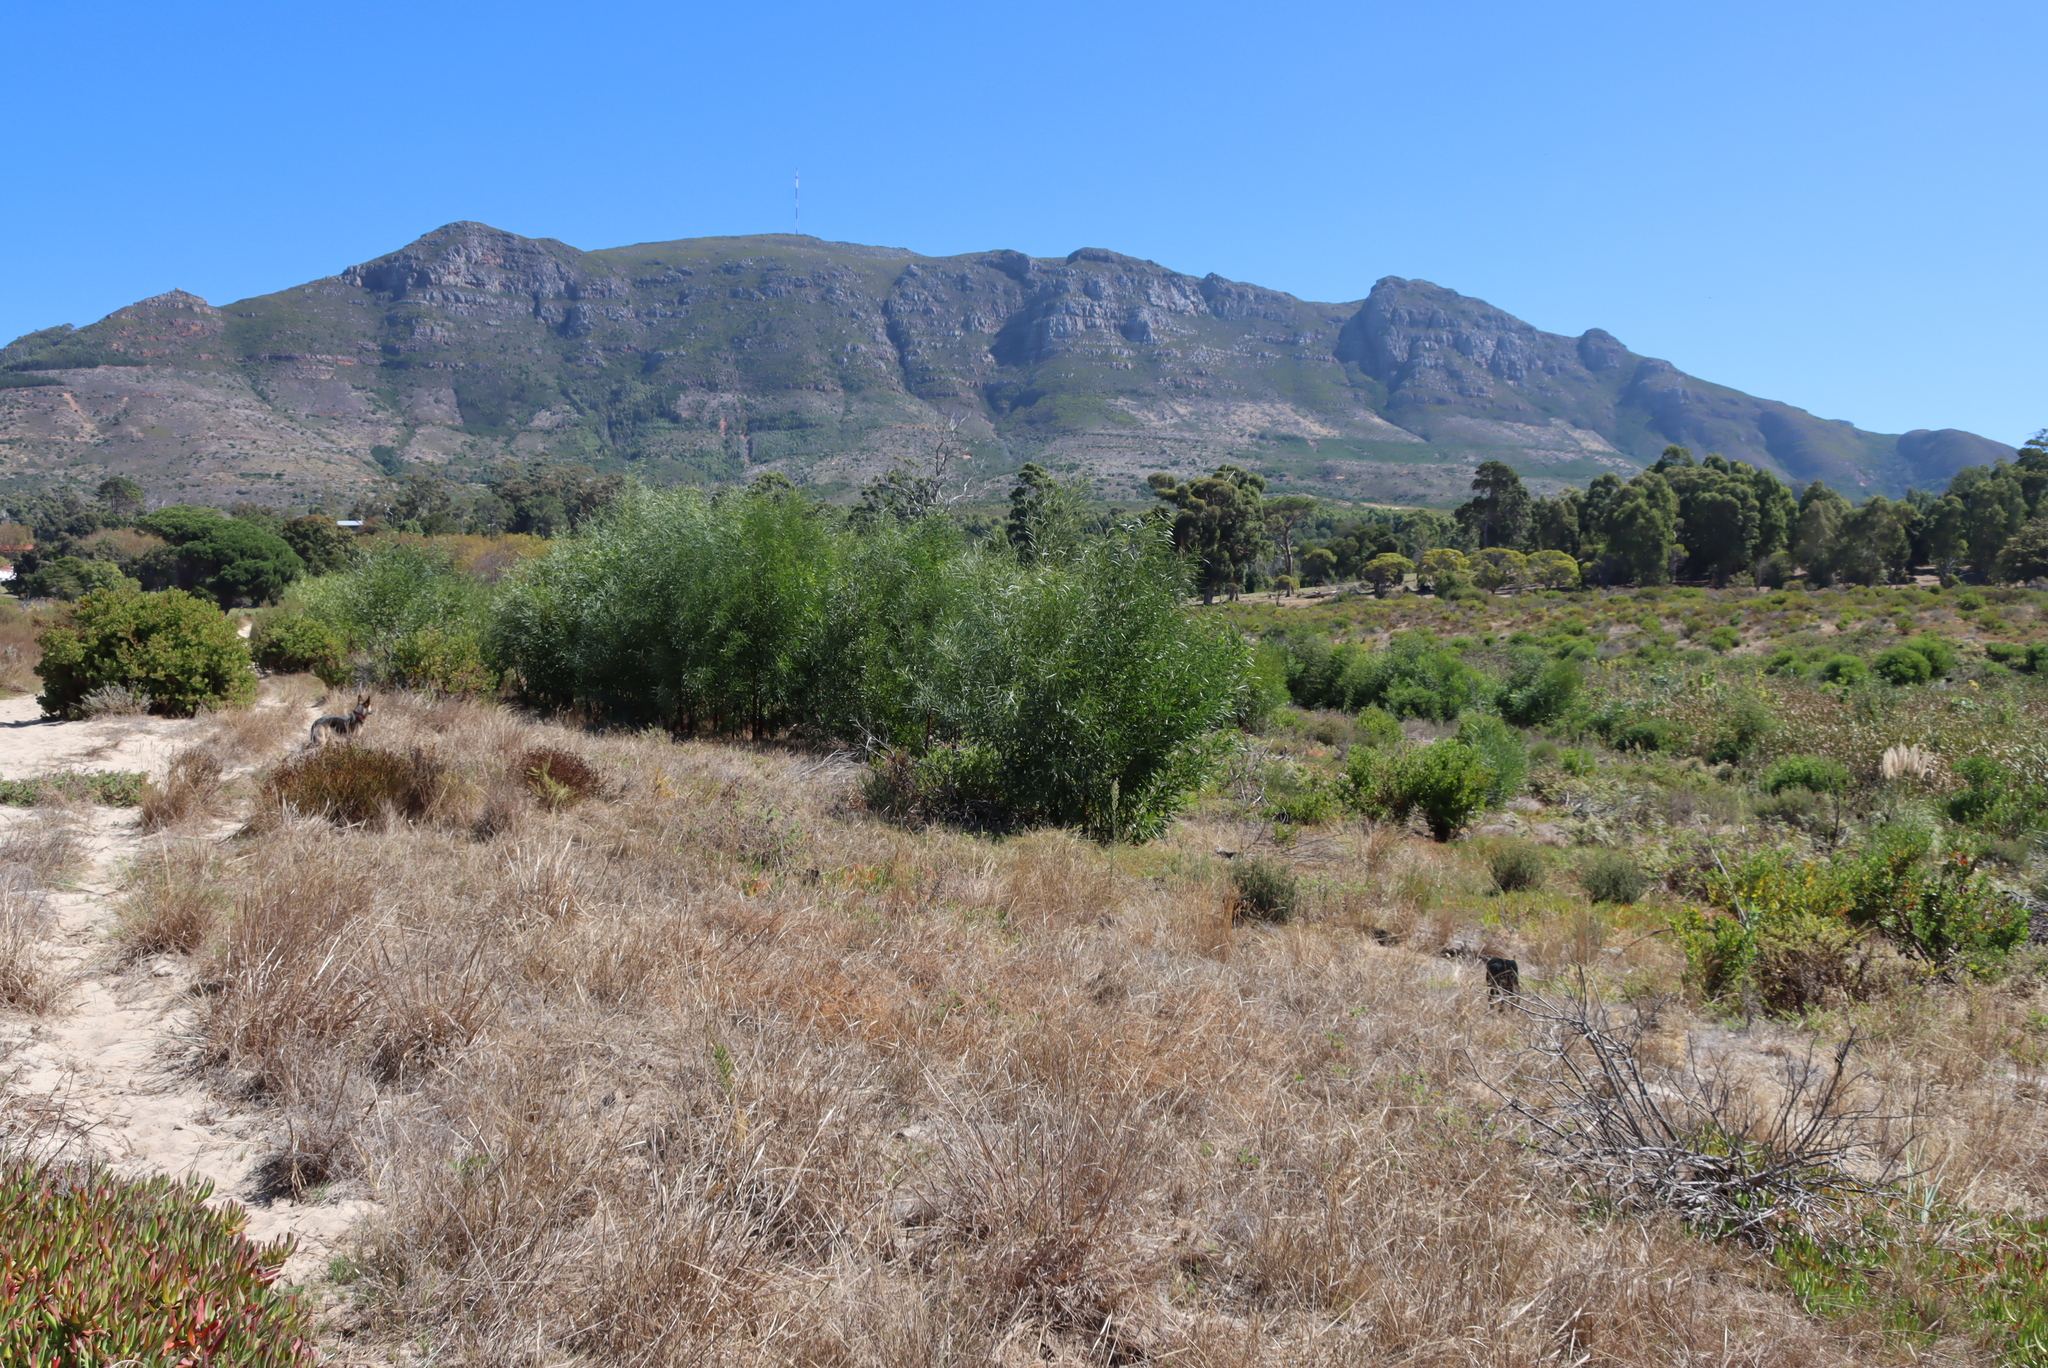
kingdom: Plantae
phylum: Tracheophyta
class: Magnoliopsida
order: Fabales
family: Fabaceae
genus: Acacia
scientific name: Acacia saligna
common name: Orange wattle
